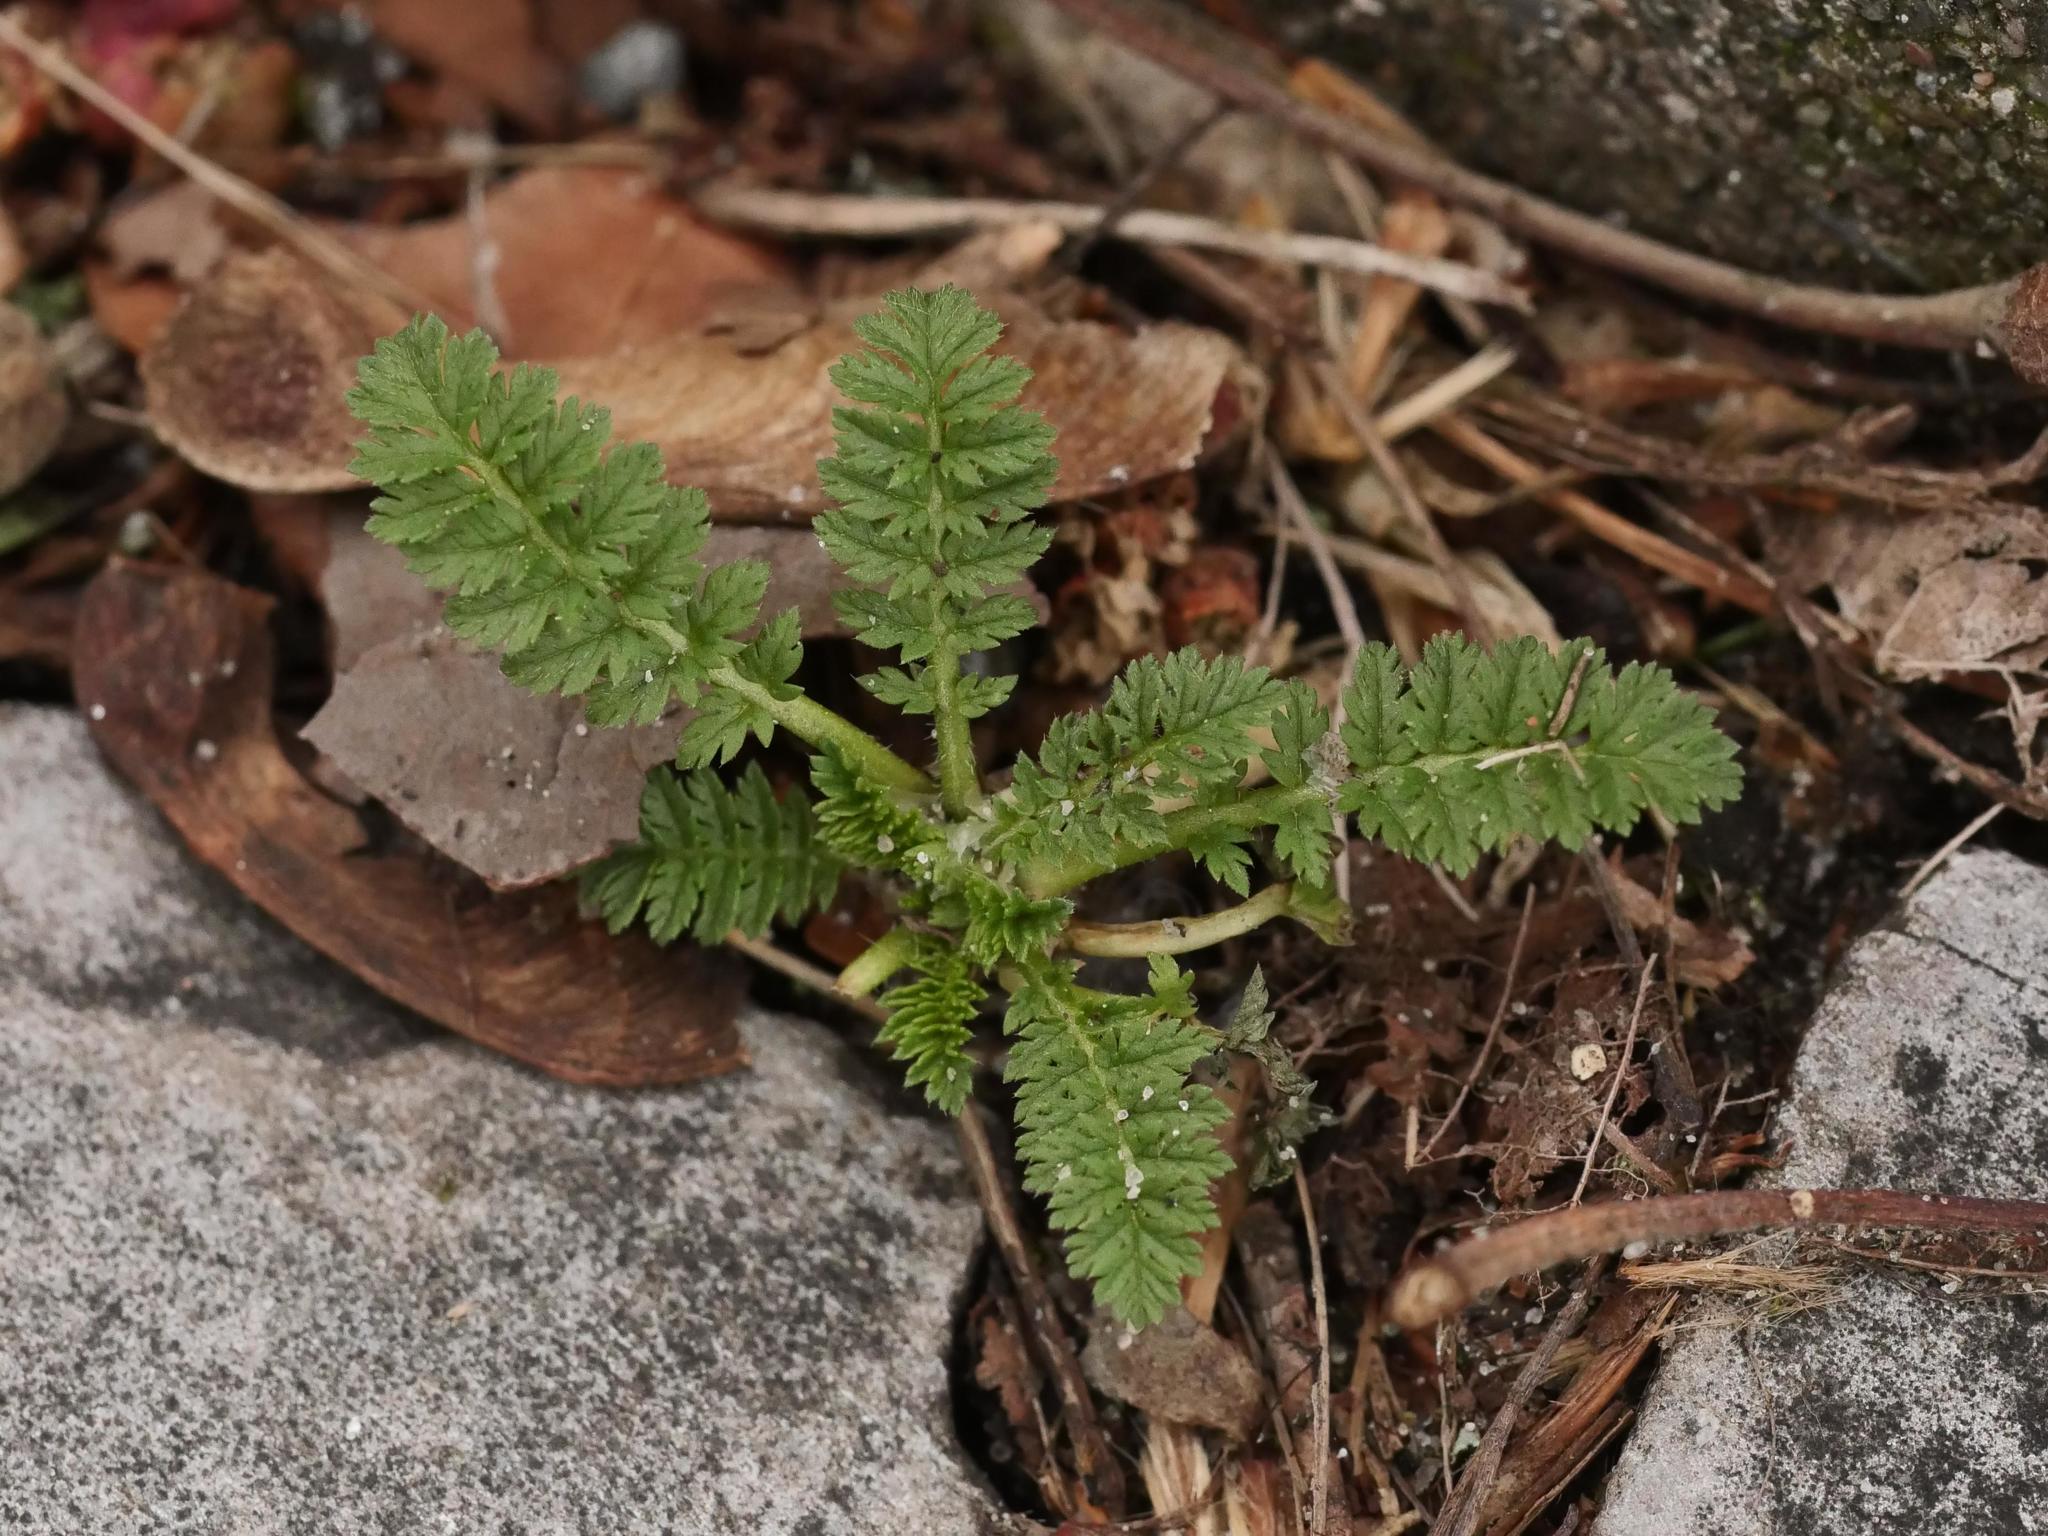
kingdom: Plantae
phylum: Tracheophyta
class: Magnoliopsida
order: Geraniales
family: Geraniaceae
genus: Erodium
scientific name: Erodium cicutarium
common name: Common stork's-bill
